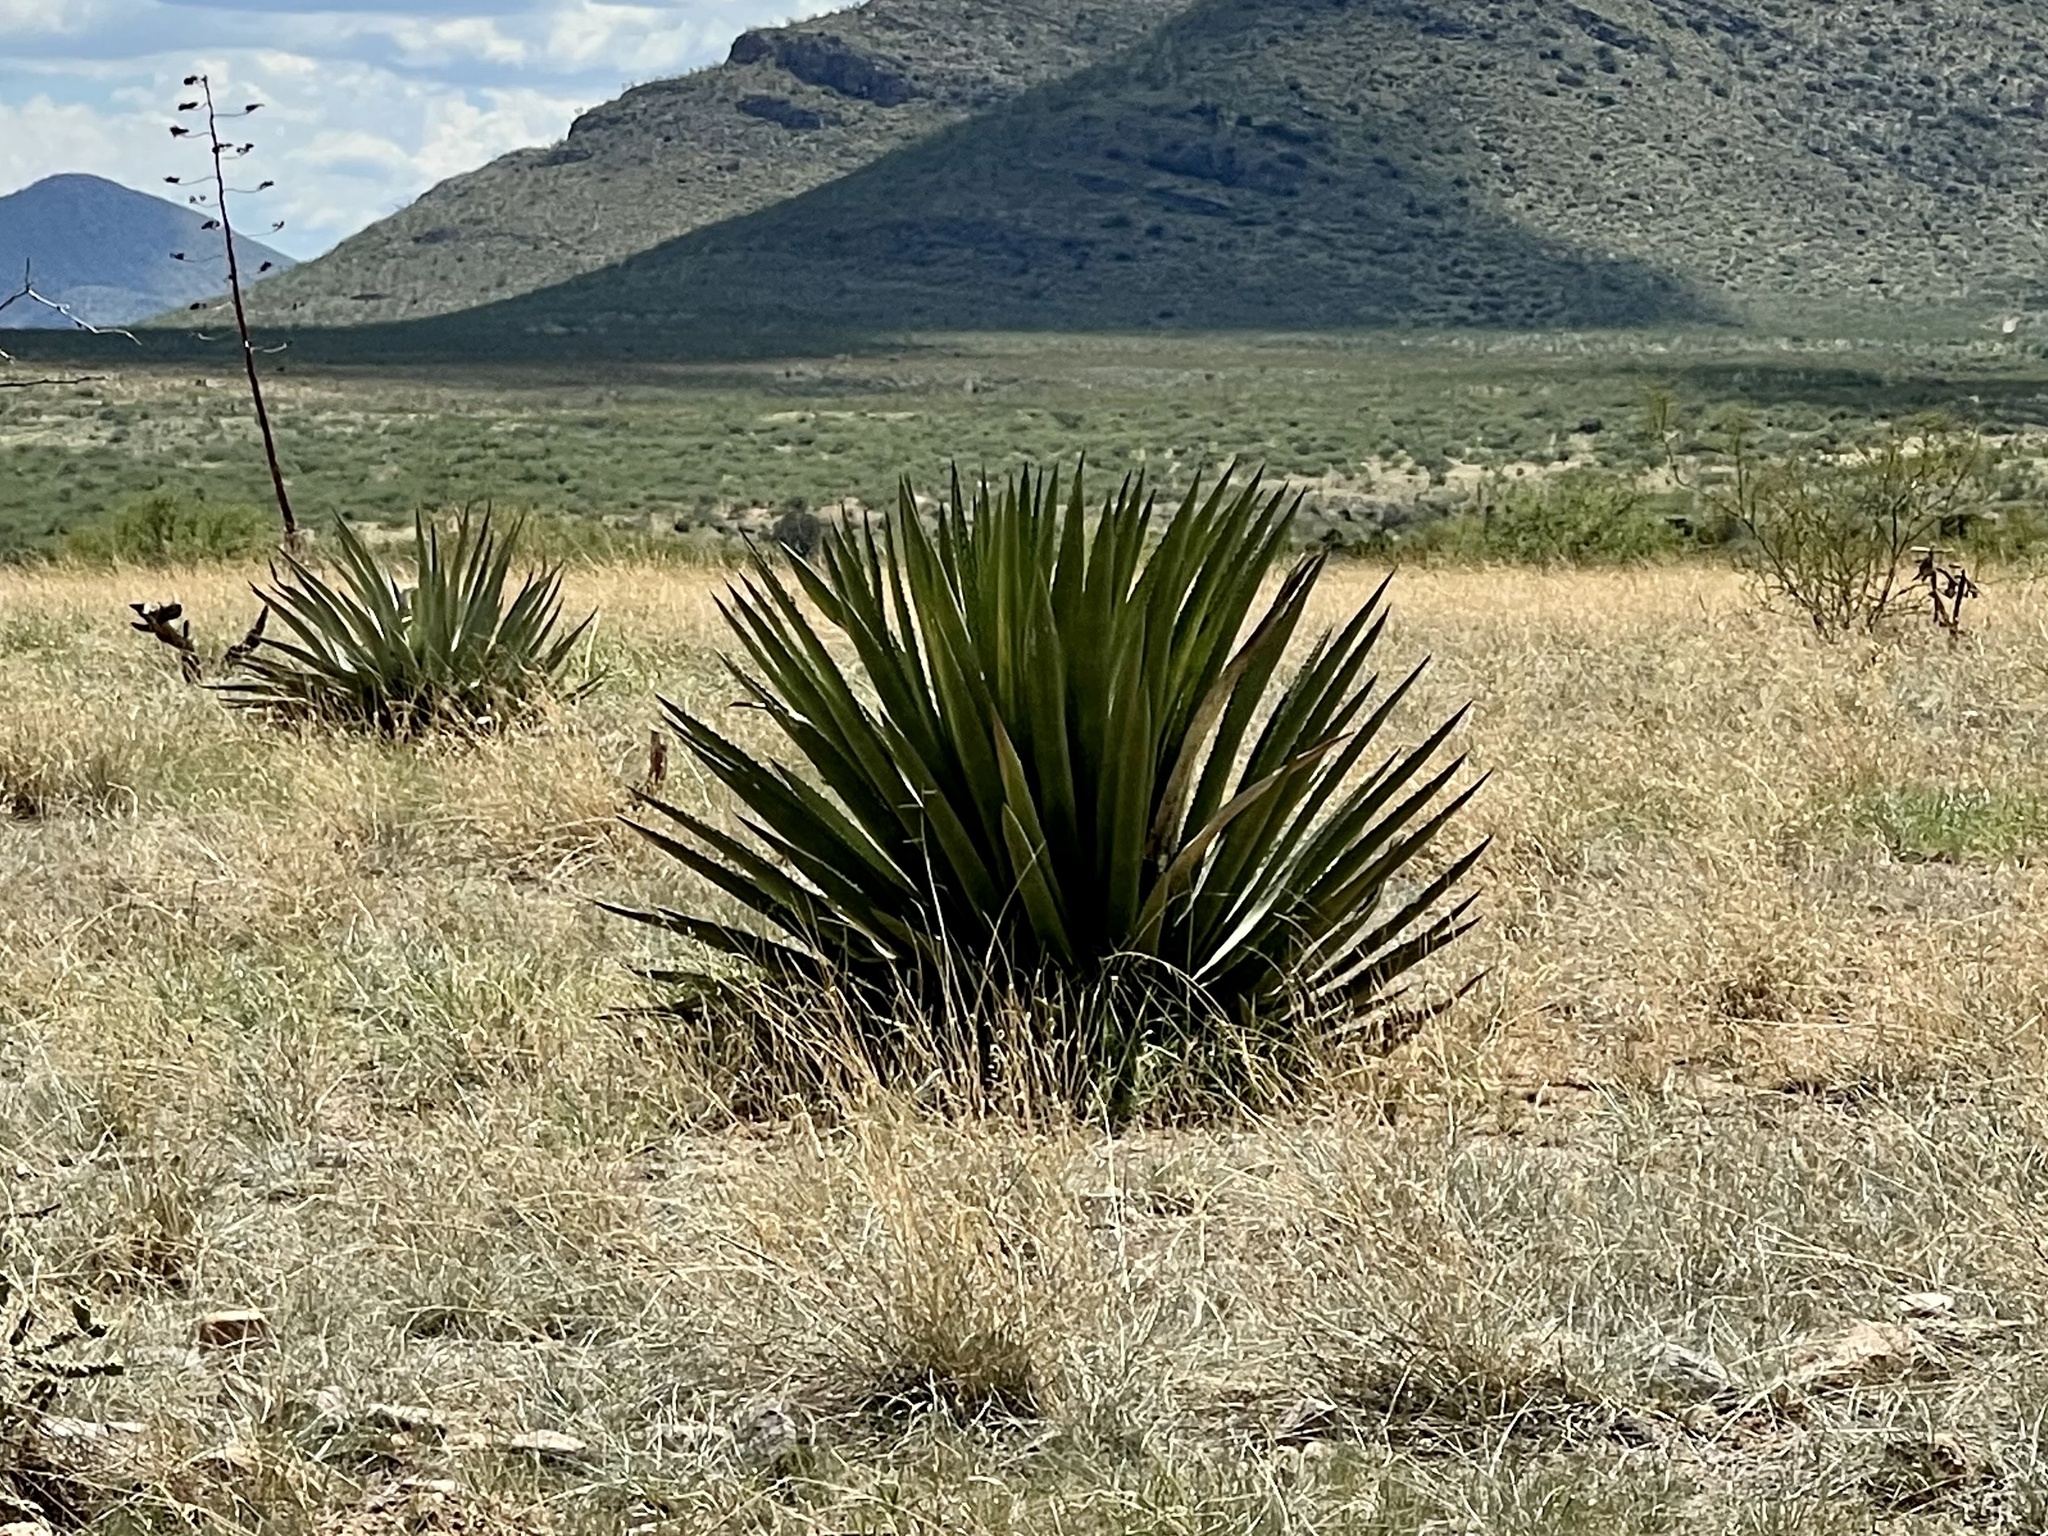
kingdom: Plantae
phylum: Tracheophyta
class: Liliopsida
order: Asparagales
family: Asparagaceae
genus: Agave
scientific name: Agave palmeri
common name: Palmer agave
